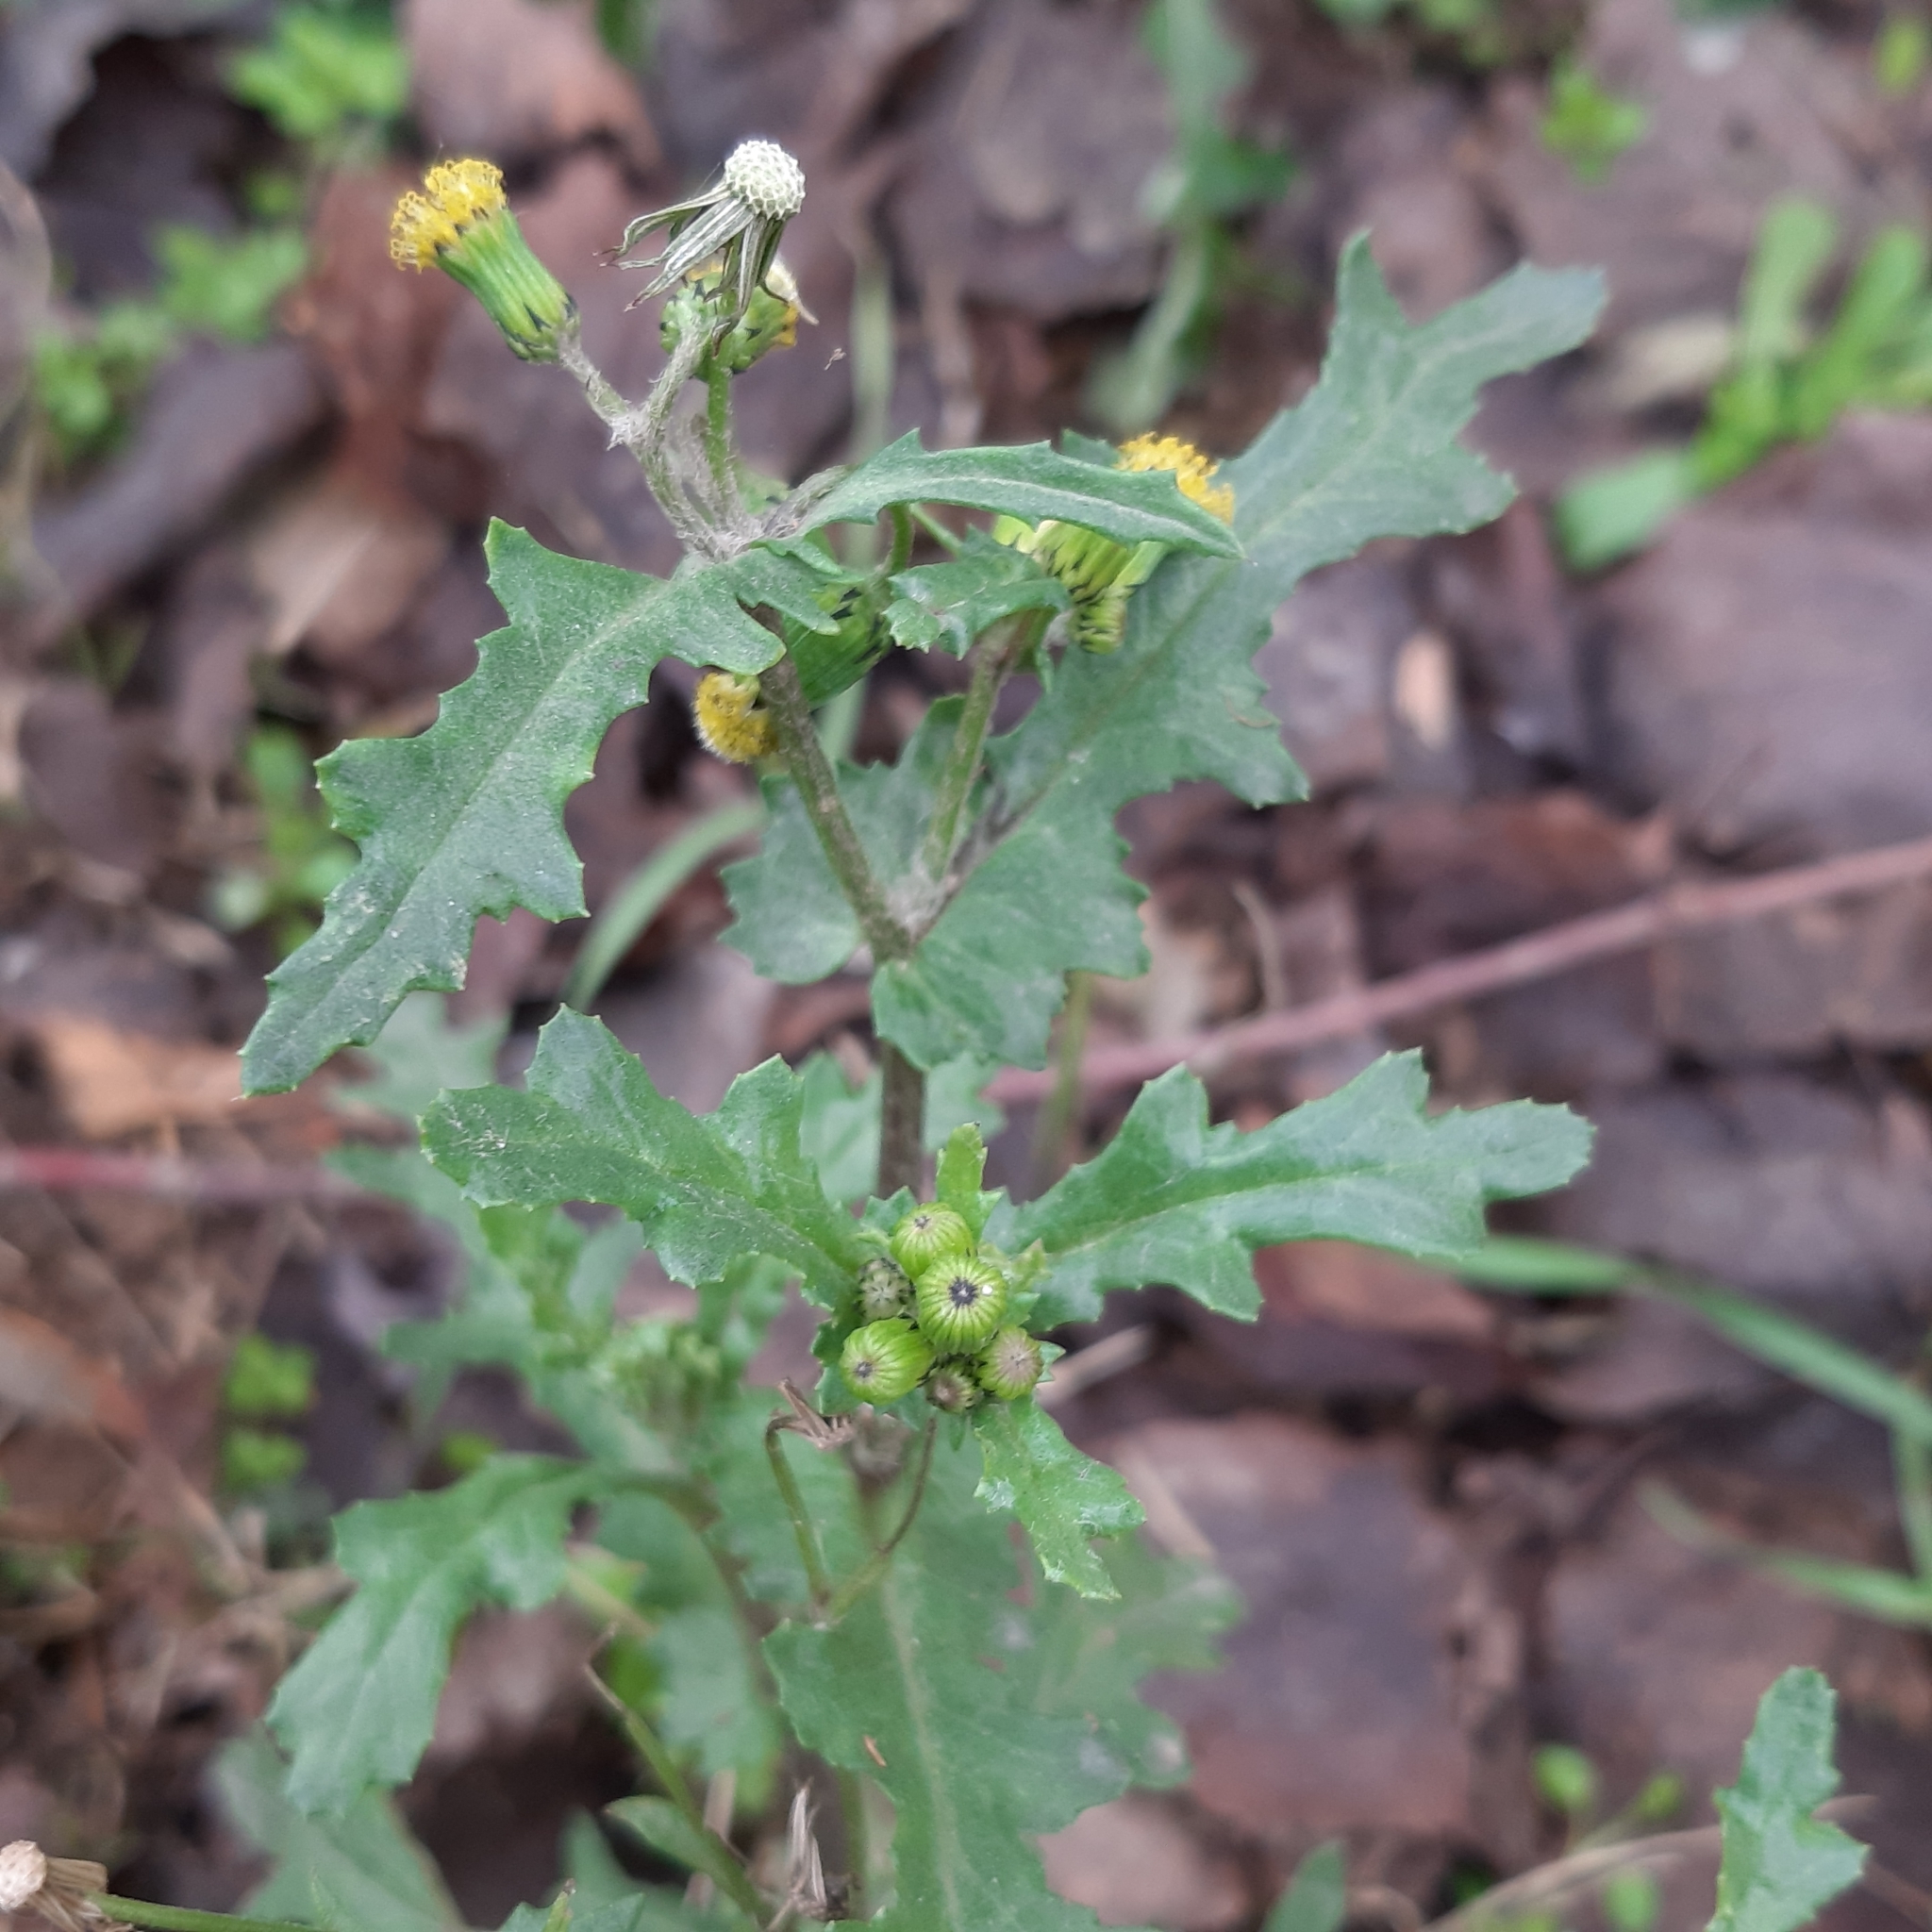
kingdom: Plantae
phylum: Tracheophyta
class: Magnoliopsida
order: Asterales
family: Asteraceae
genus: Senecio
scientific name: Senecio vulgaris
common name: Old-man-in-the-spring
